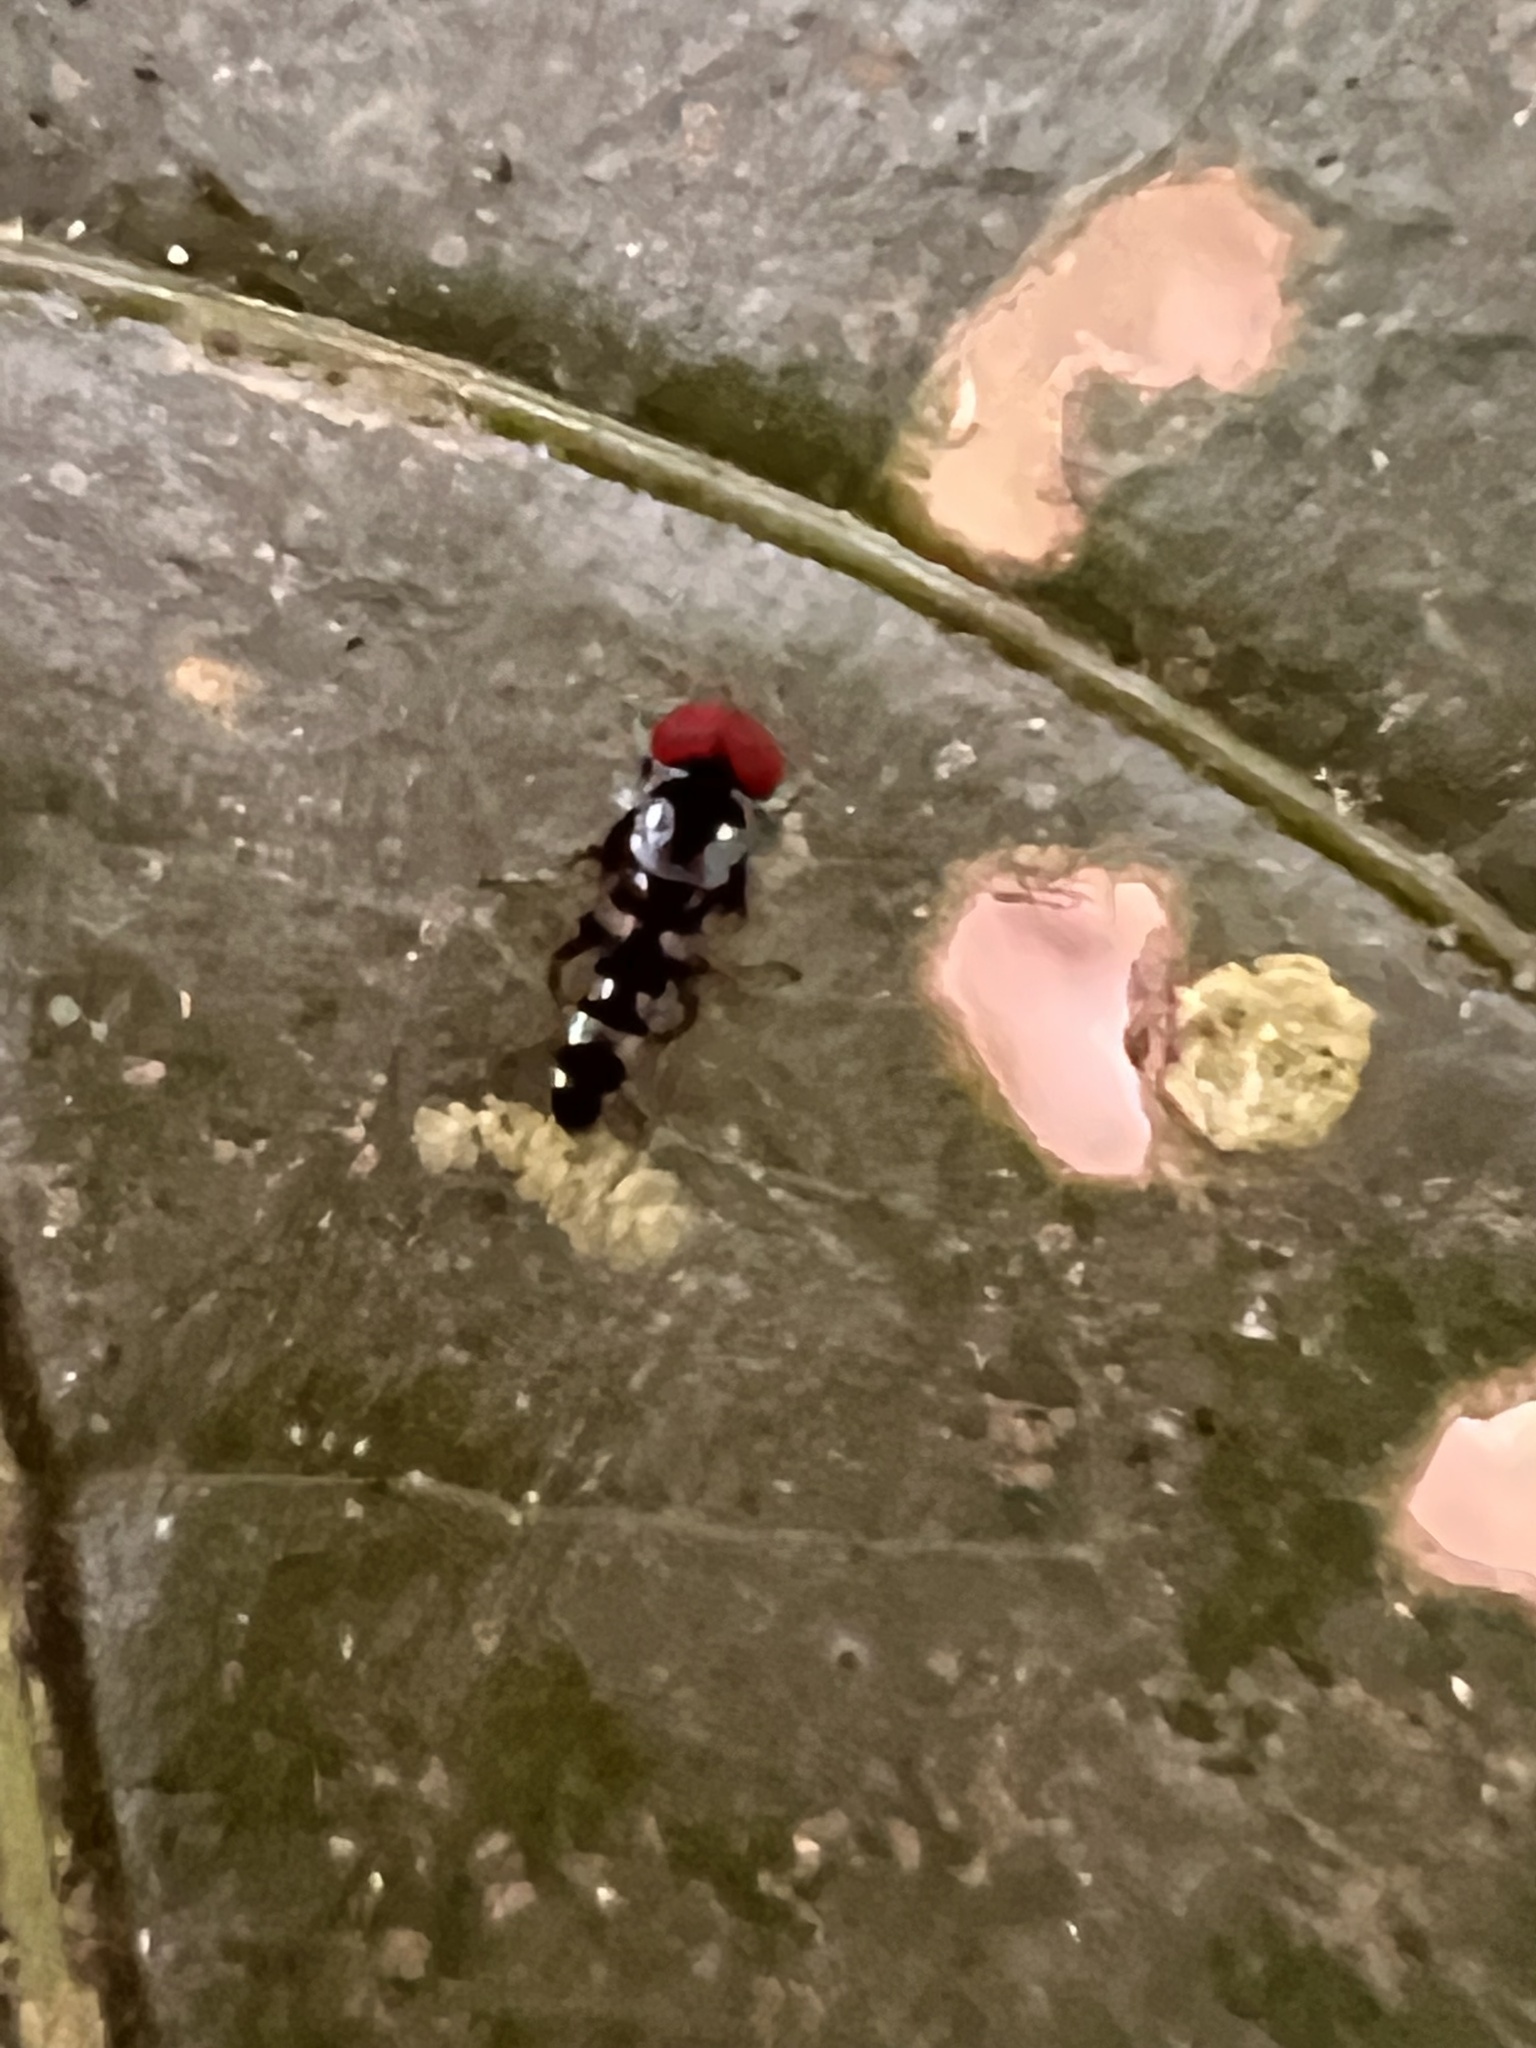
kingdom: Animalia
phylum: Arthropoda
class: Insecta
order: Diptera
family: Platypezidae
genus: Bertamyia
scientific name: Bertamyia notata
